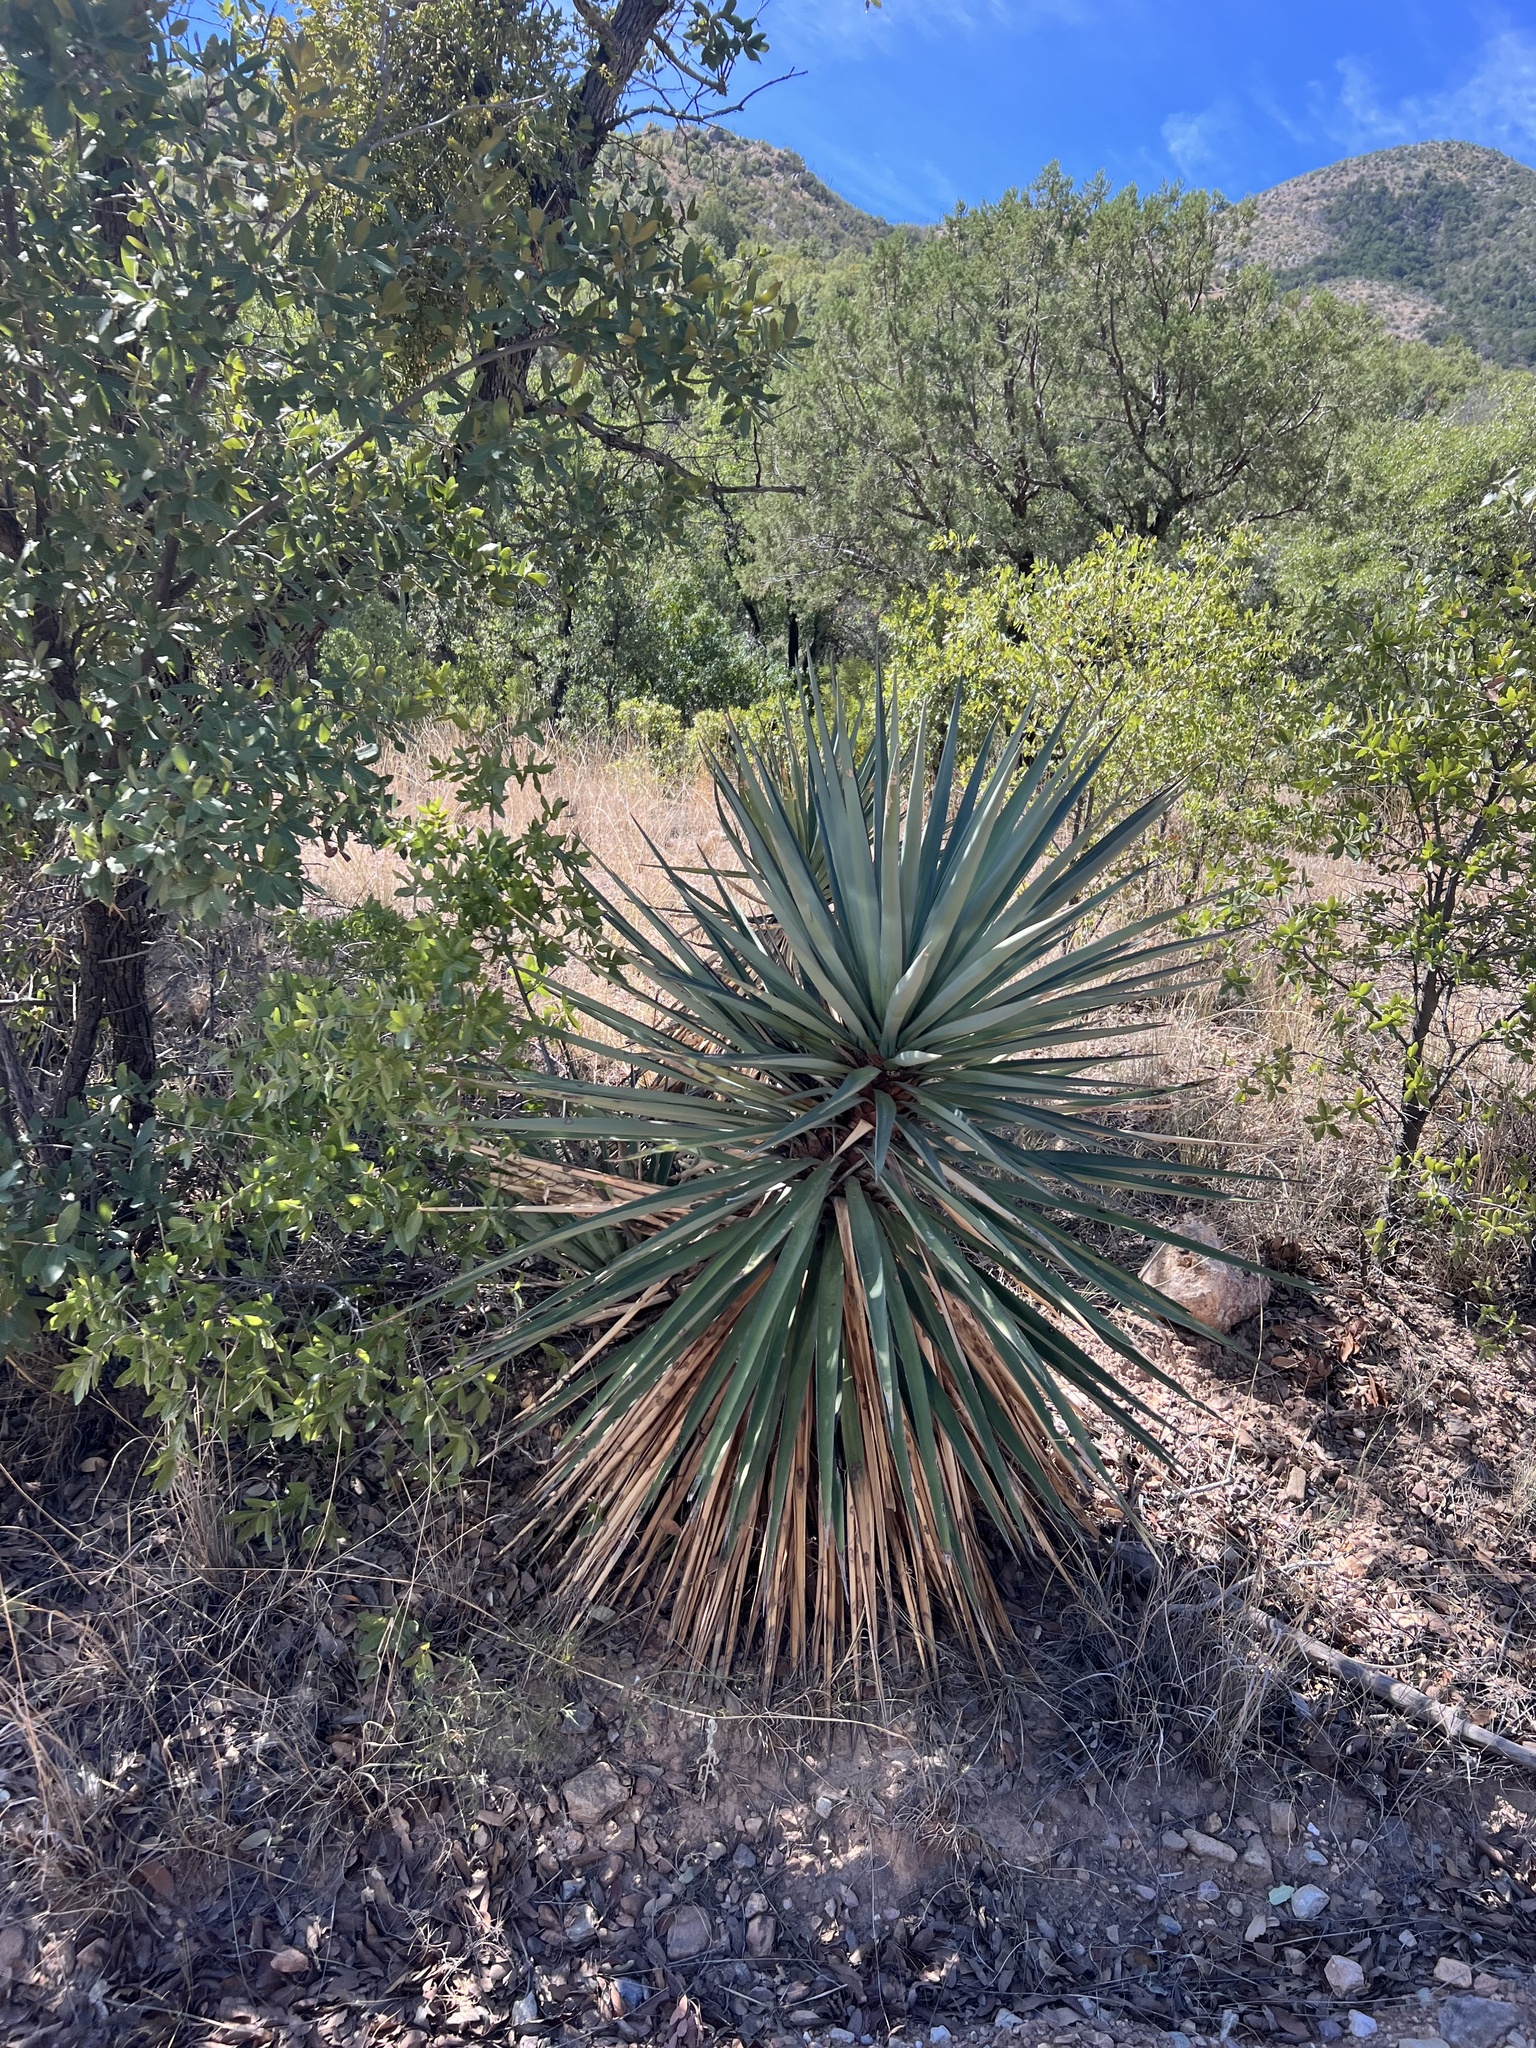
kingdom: Plantae
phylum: Tracheophyta
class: Liliopsida
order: Asparagales
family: Asparagaceae
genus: Yucca
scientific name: Yucca schottii
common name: Hoary yucca
